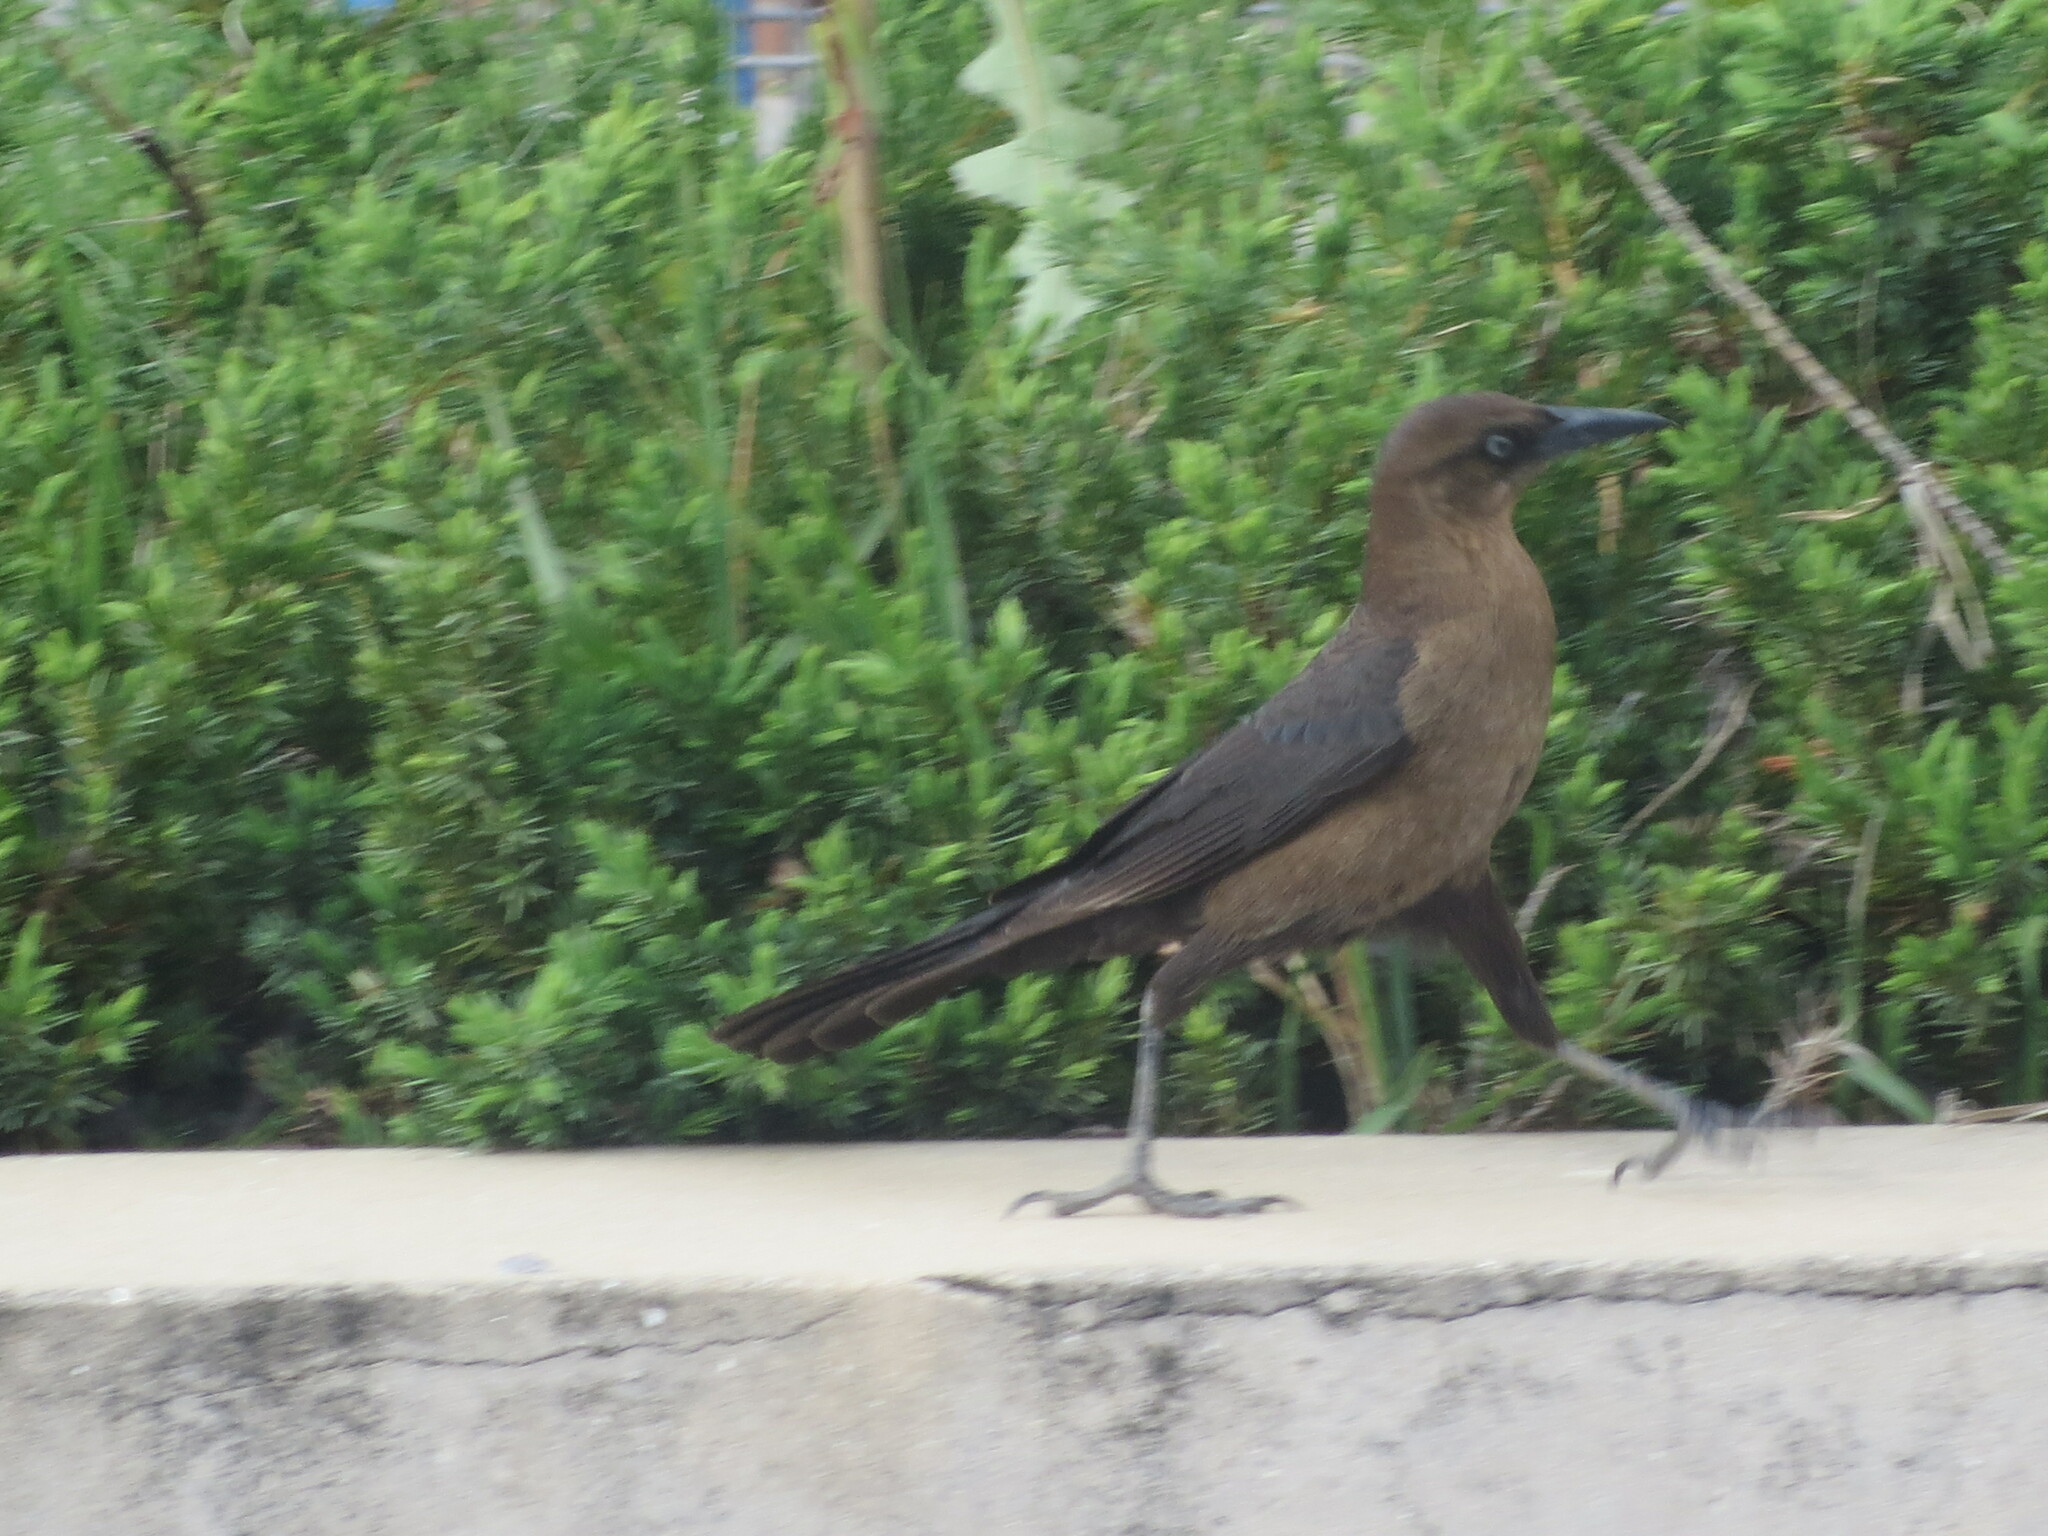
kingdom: Animalia
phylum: Chordata
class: Aves
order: Passeriformes
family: Icteridae
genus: Quiscalus
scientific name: Quiscalus major
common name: Boat-tailed grackle
